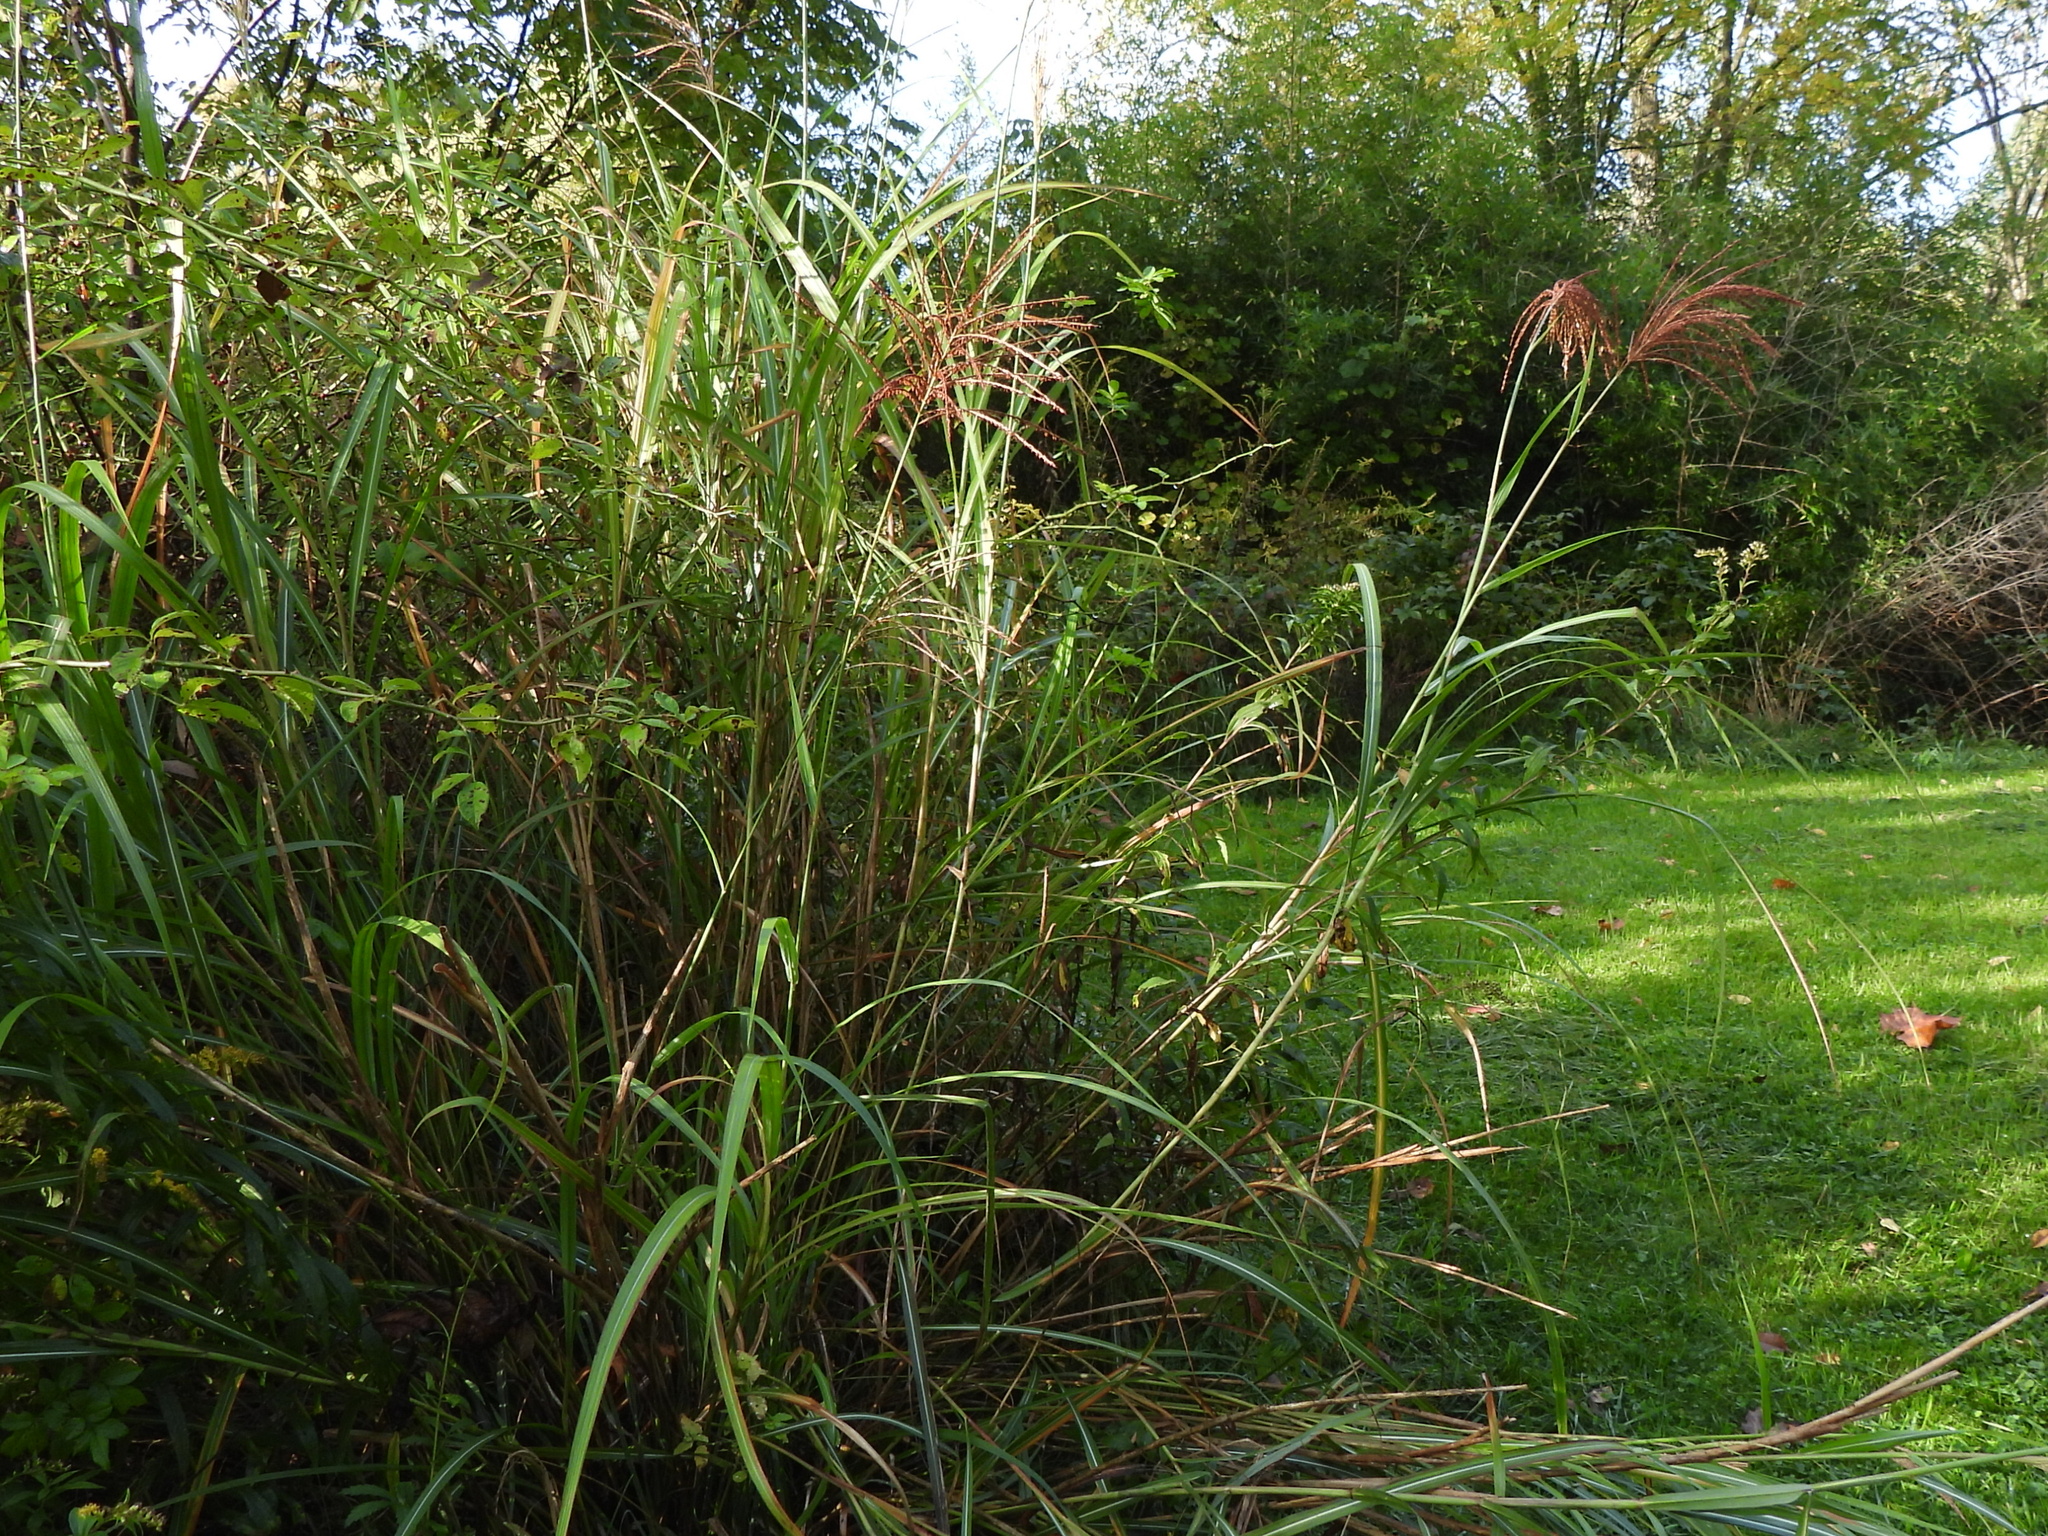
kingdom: Plantae
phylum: Tracheophyta
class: Liliopsida
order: Poales
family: Poaceae
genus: Miscanthus
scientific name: Miscanthus sinensis
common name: Chinese silvergrass
